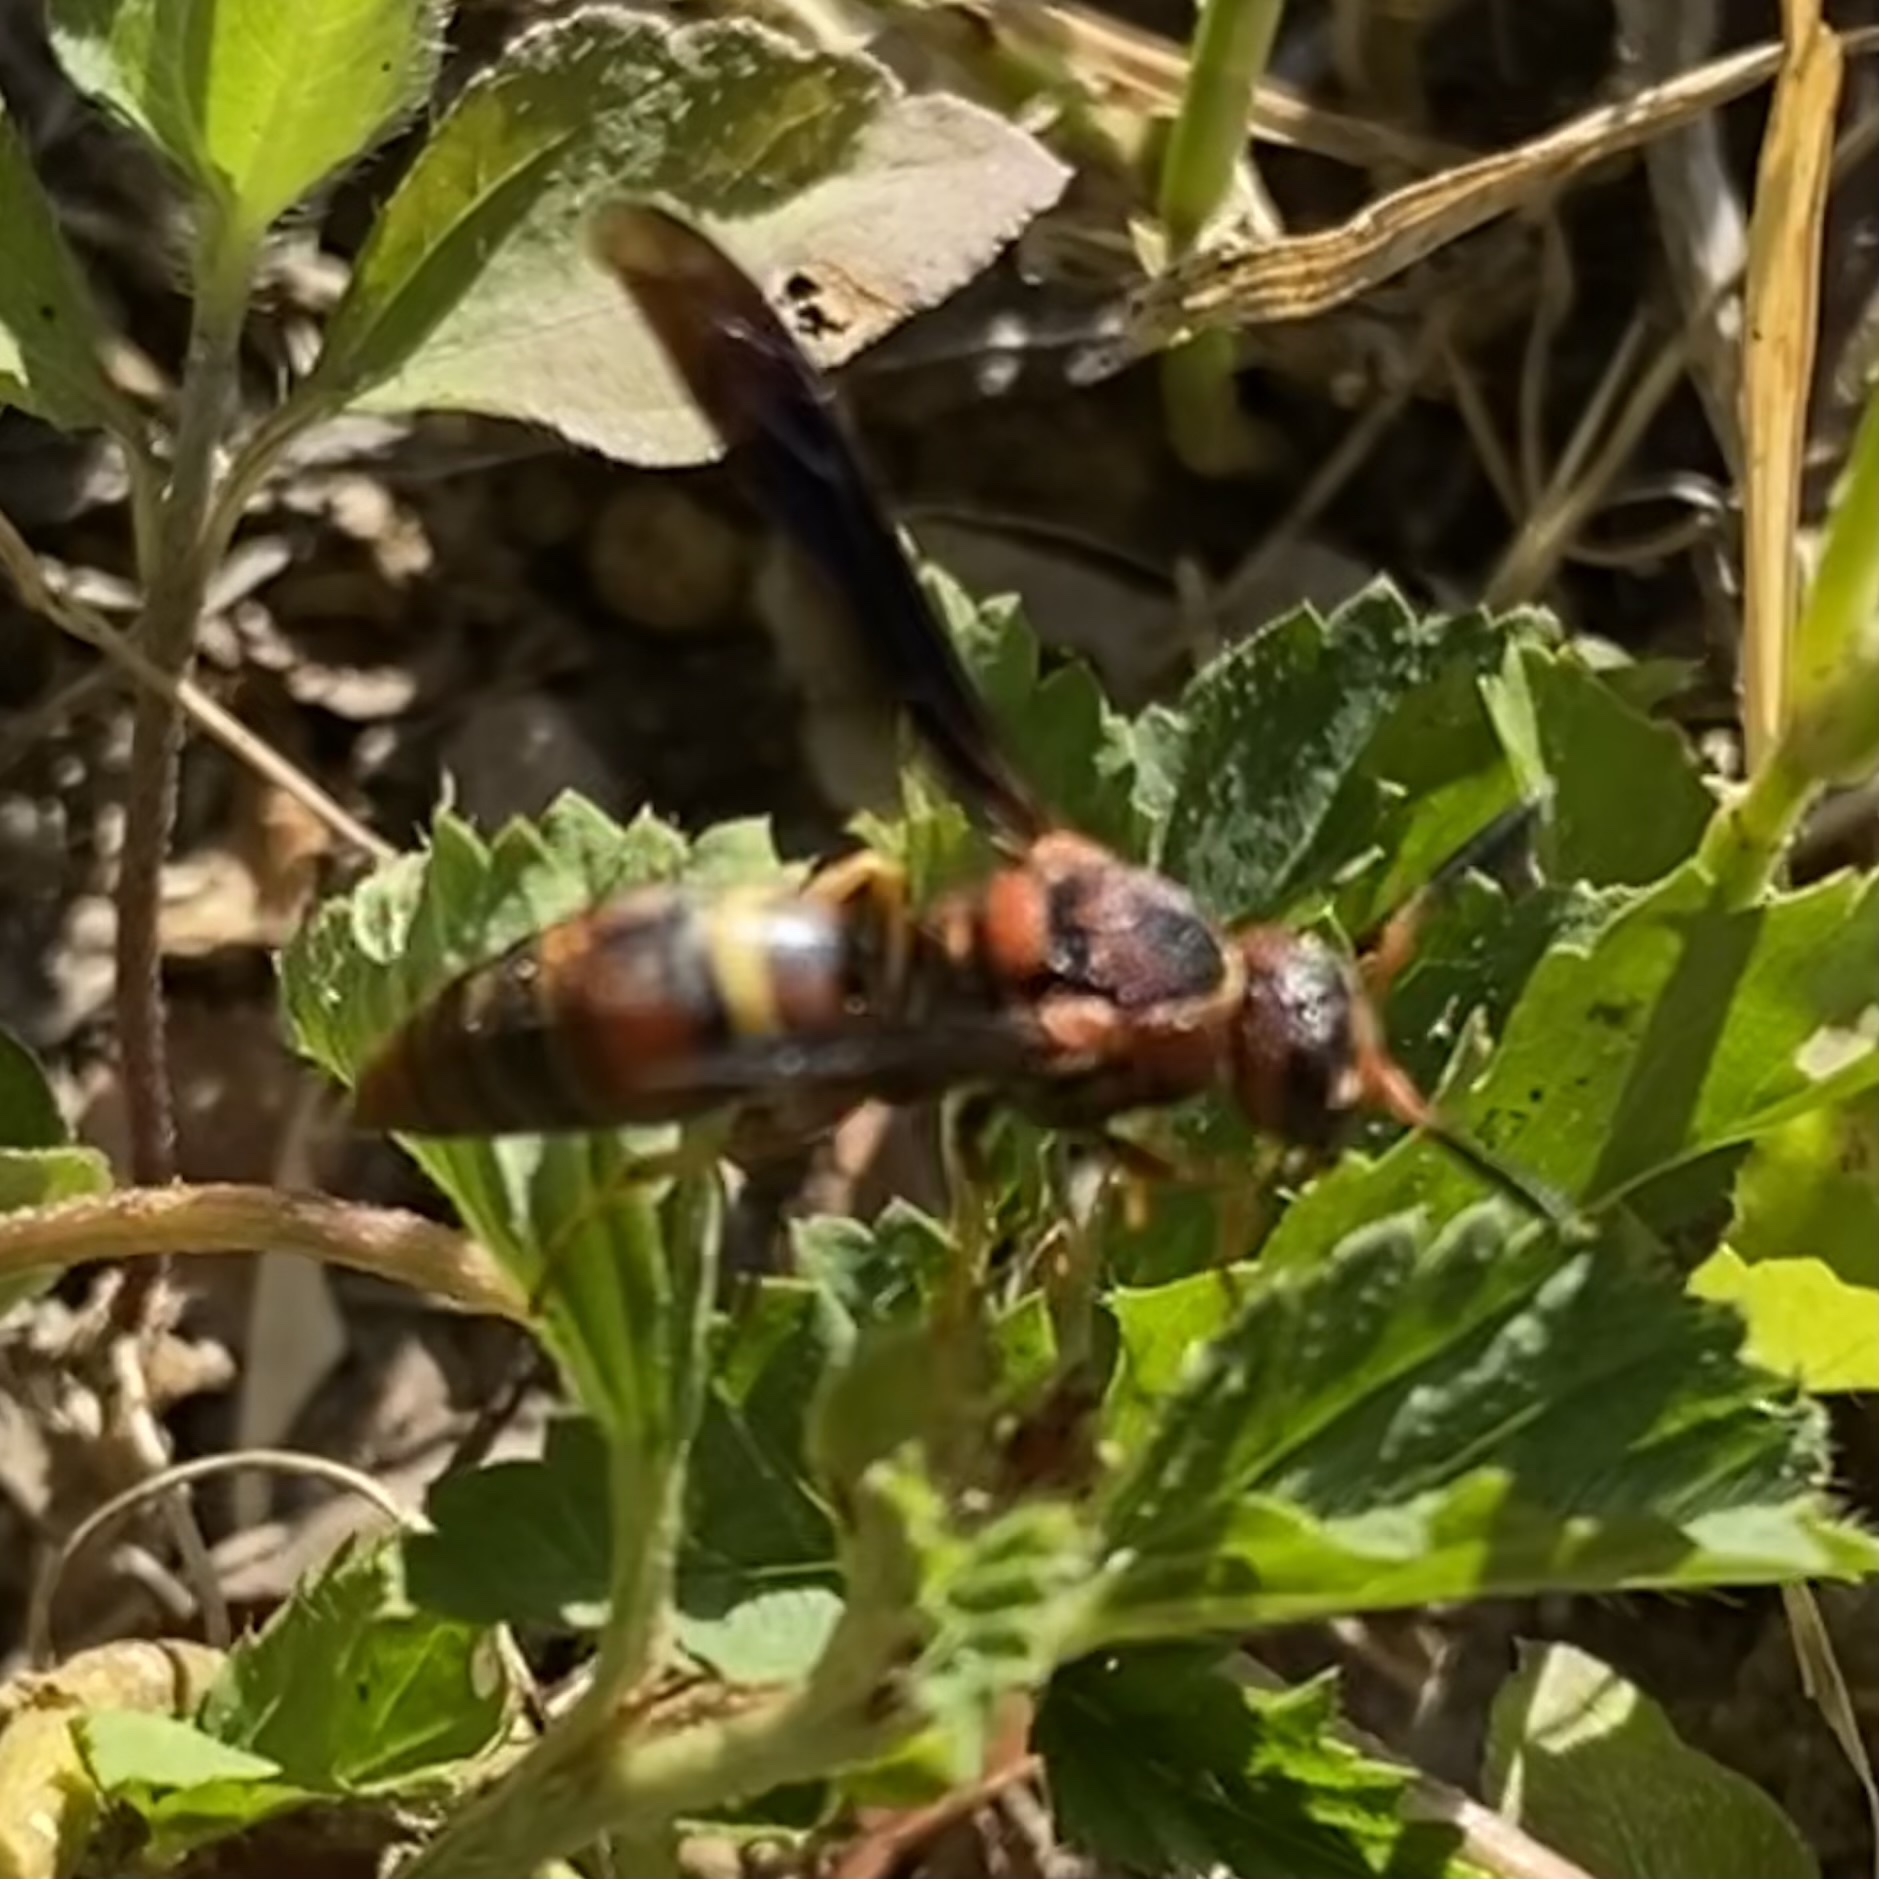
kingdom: Animalia
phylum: Arthropoda
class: Insecta
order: Hymenoptera
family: Eumenidae
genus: Euodynerus
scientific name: Euodynerus crypticus
